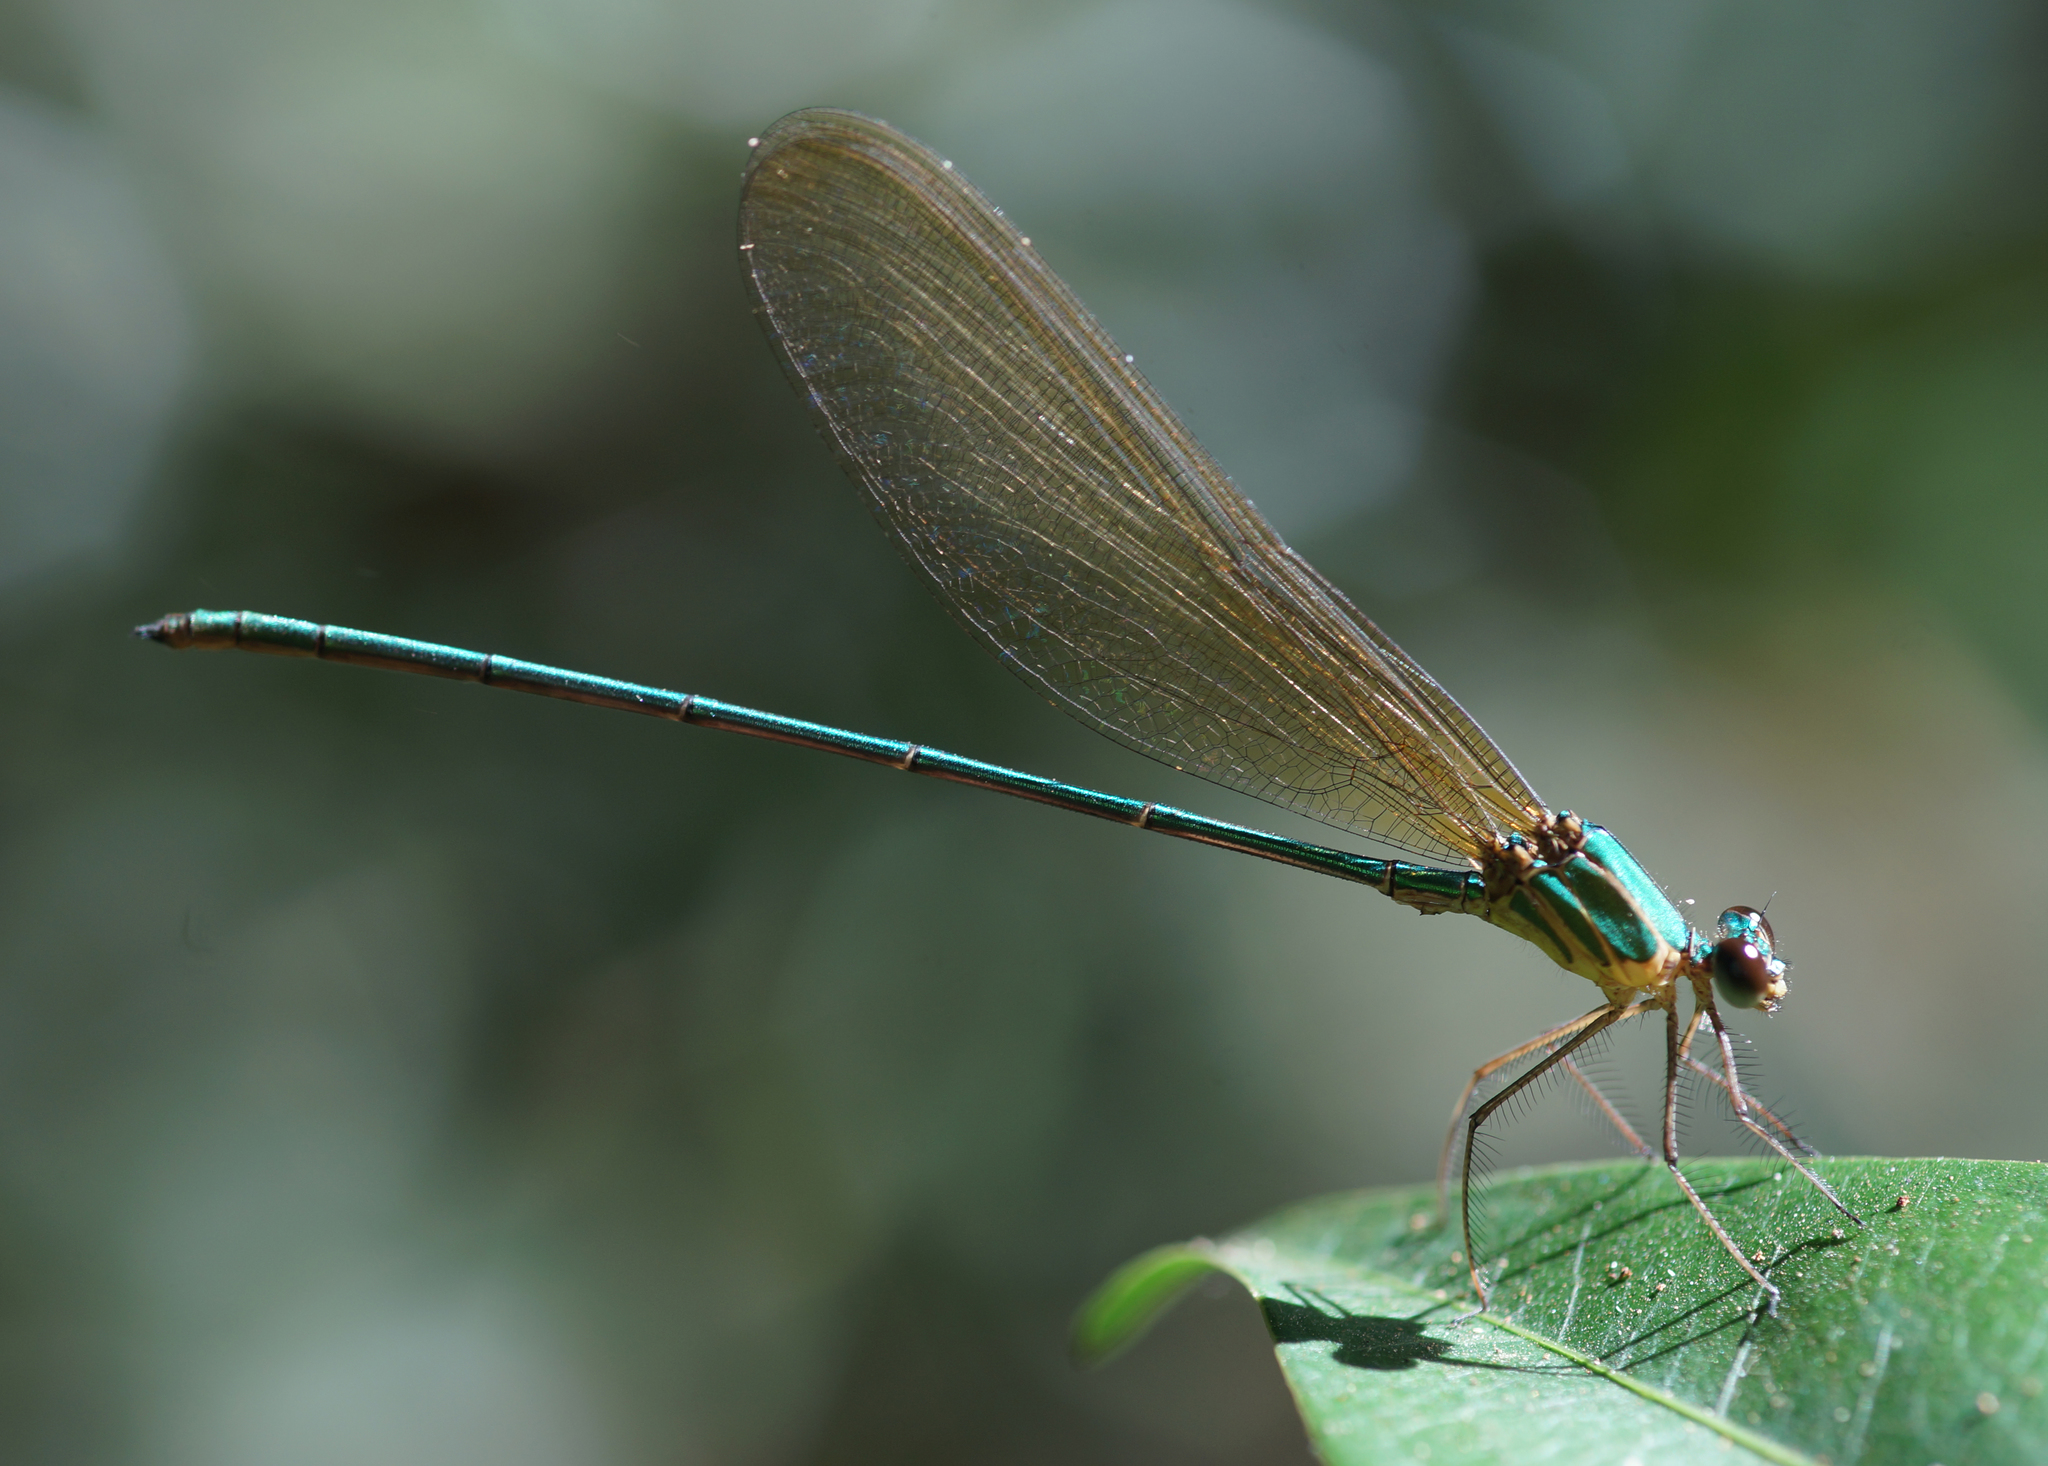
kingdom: Animalia
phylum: Arthropoda
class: Insecta
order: Odonata
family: Calopterygidae
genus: Vestalis
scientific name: Vestalis gracilis
